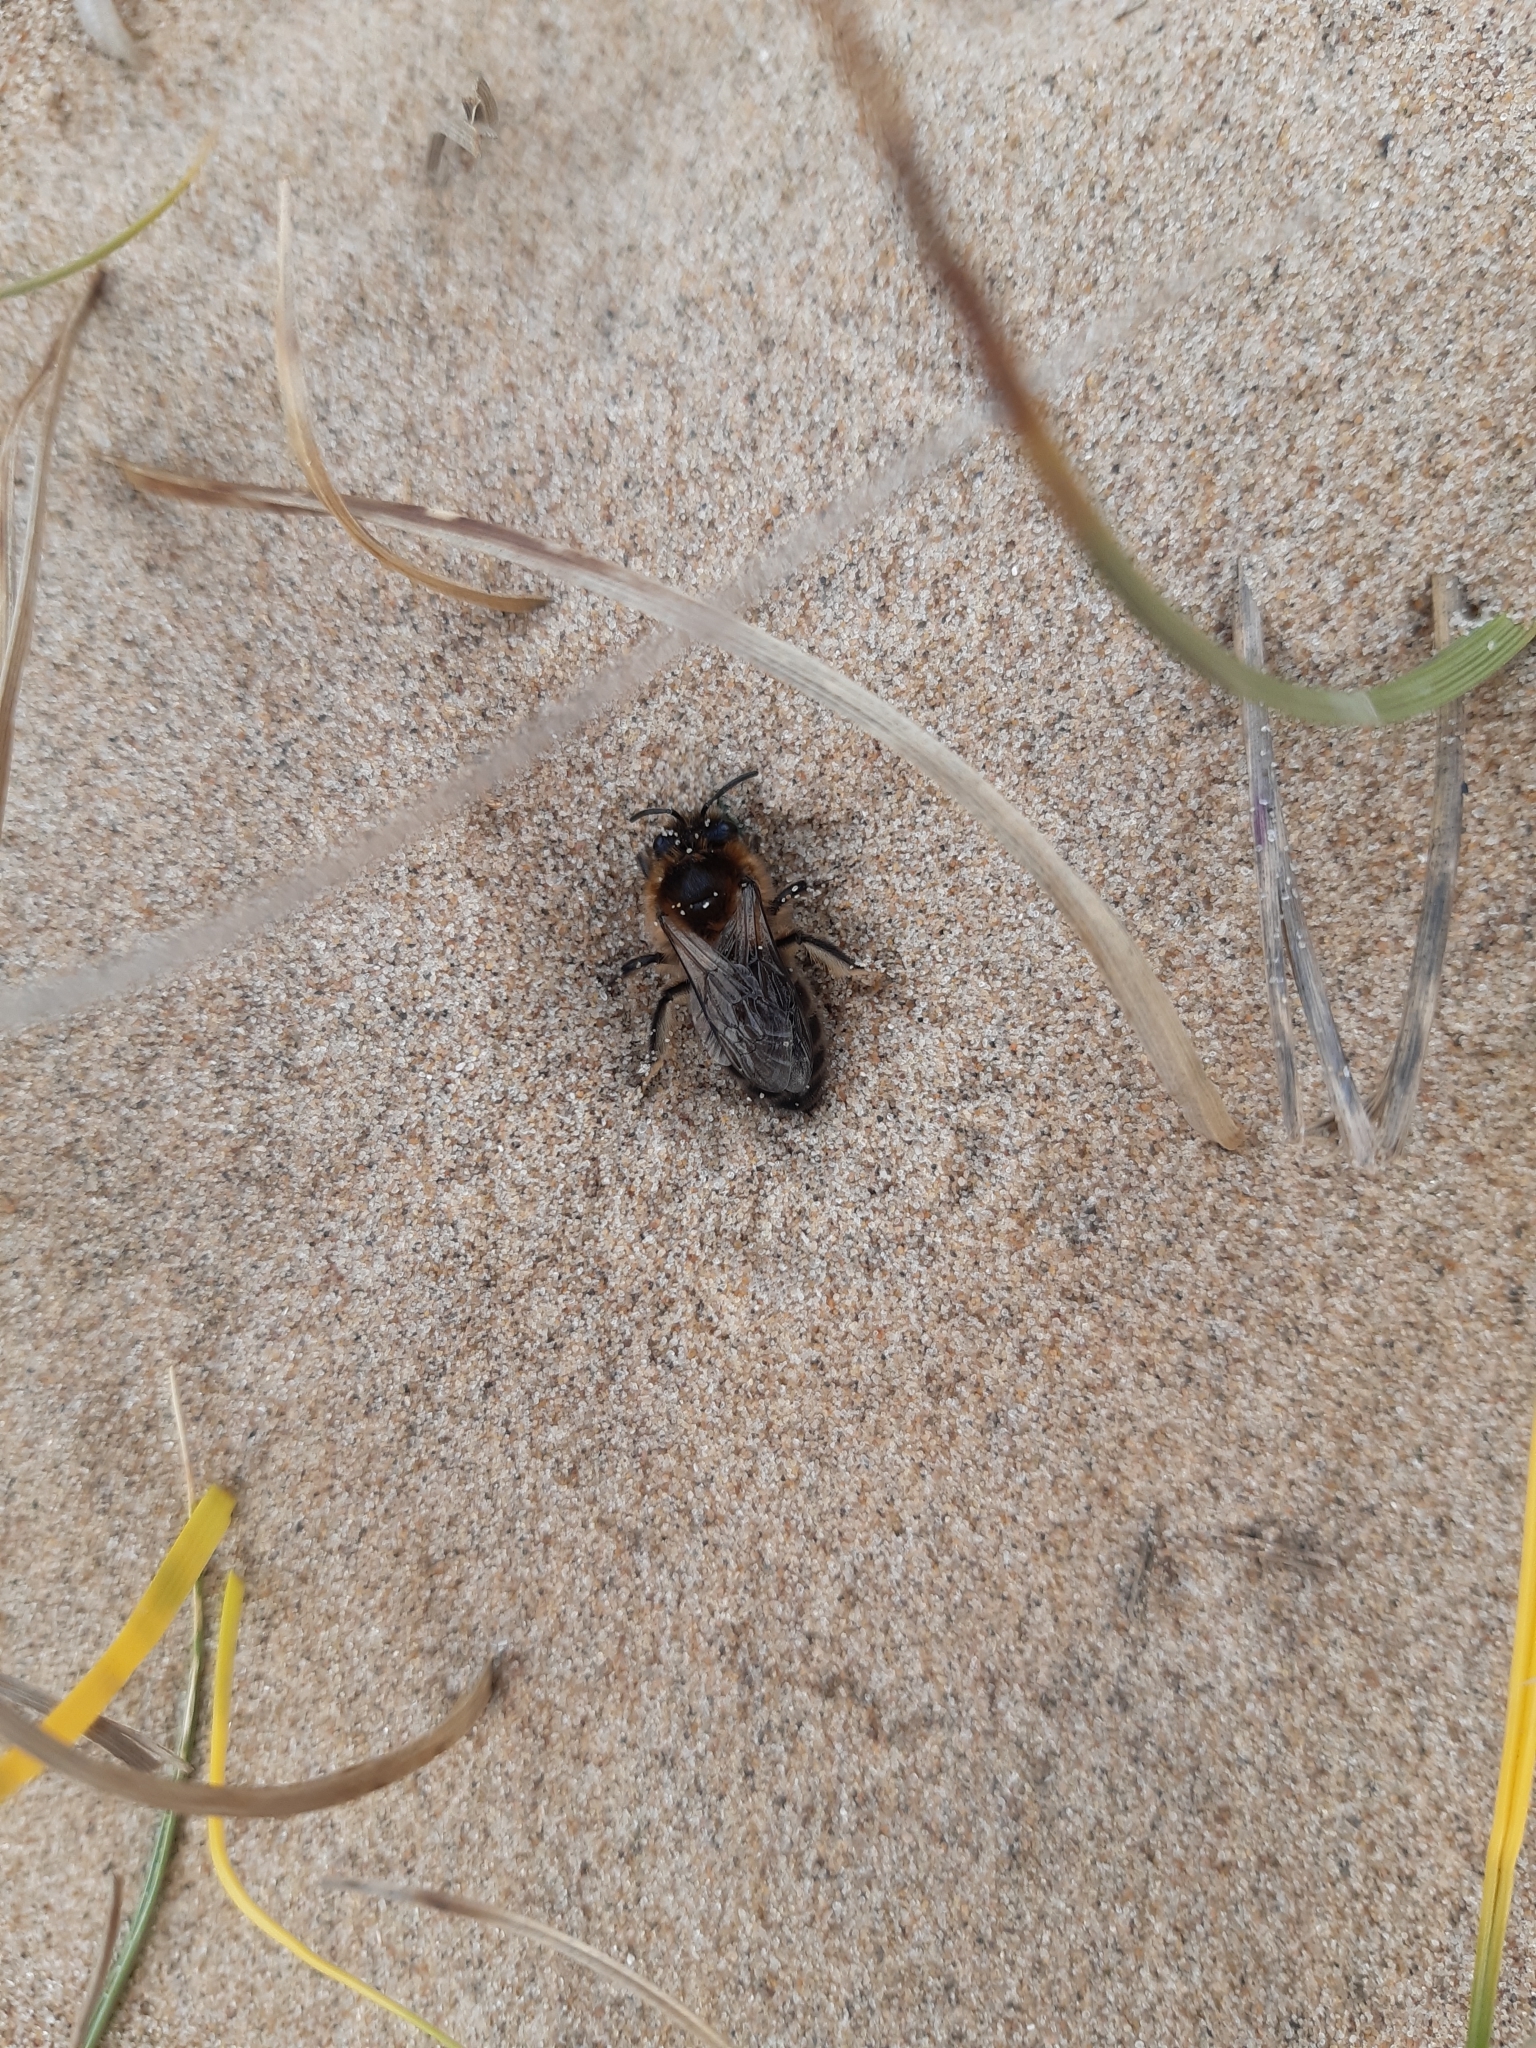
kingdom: Animalia
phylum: Arthropoda
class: Insecta
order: Hymenoptera
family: Colletidae
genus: Colletes
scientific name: Colletes cunicularius
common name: Early colletes
